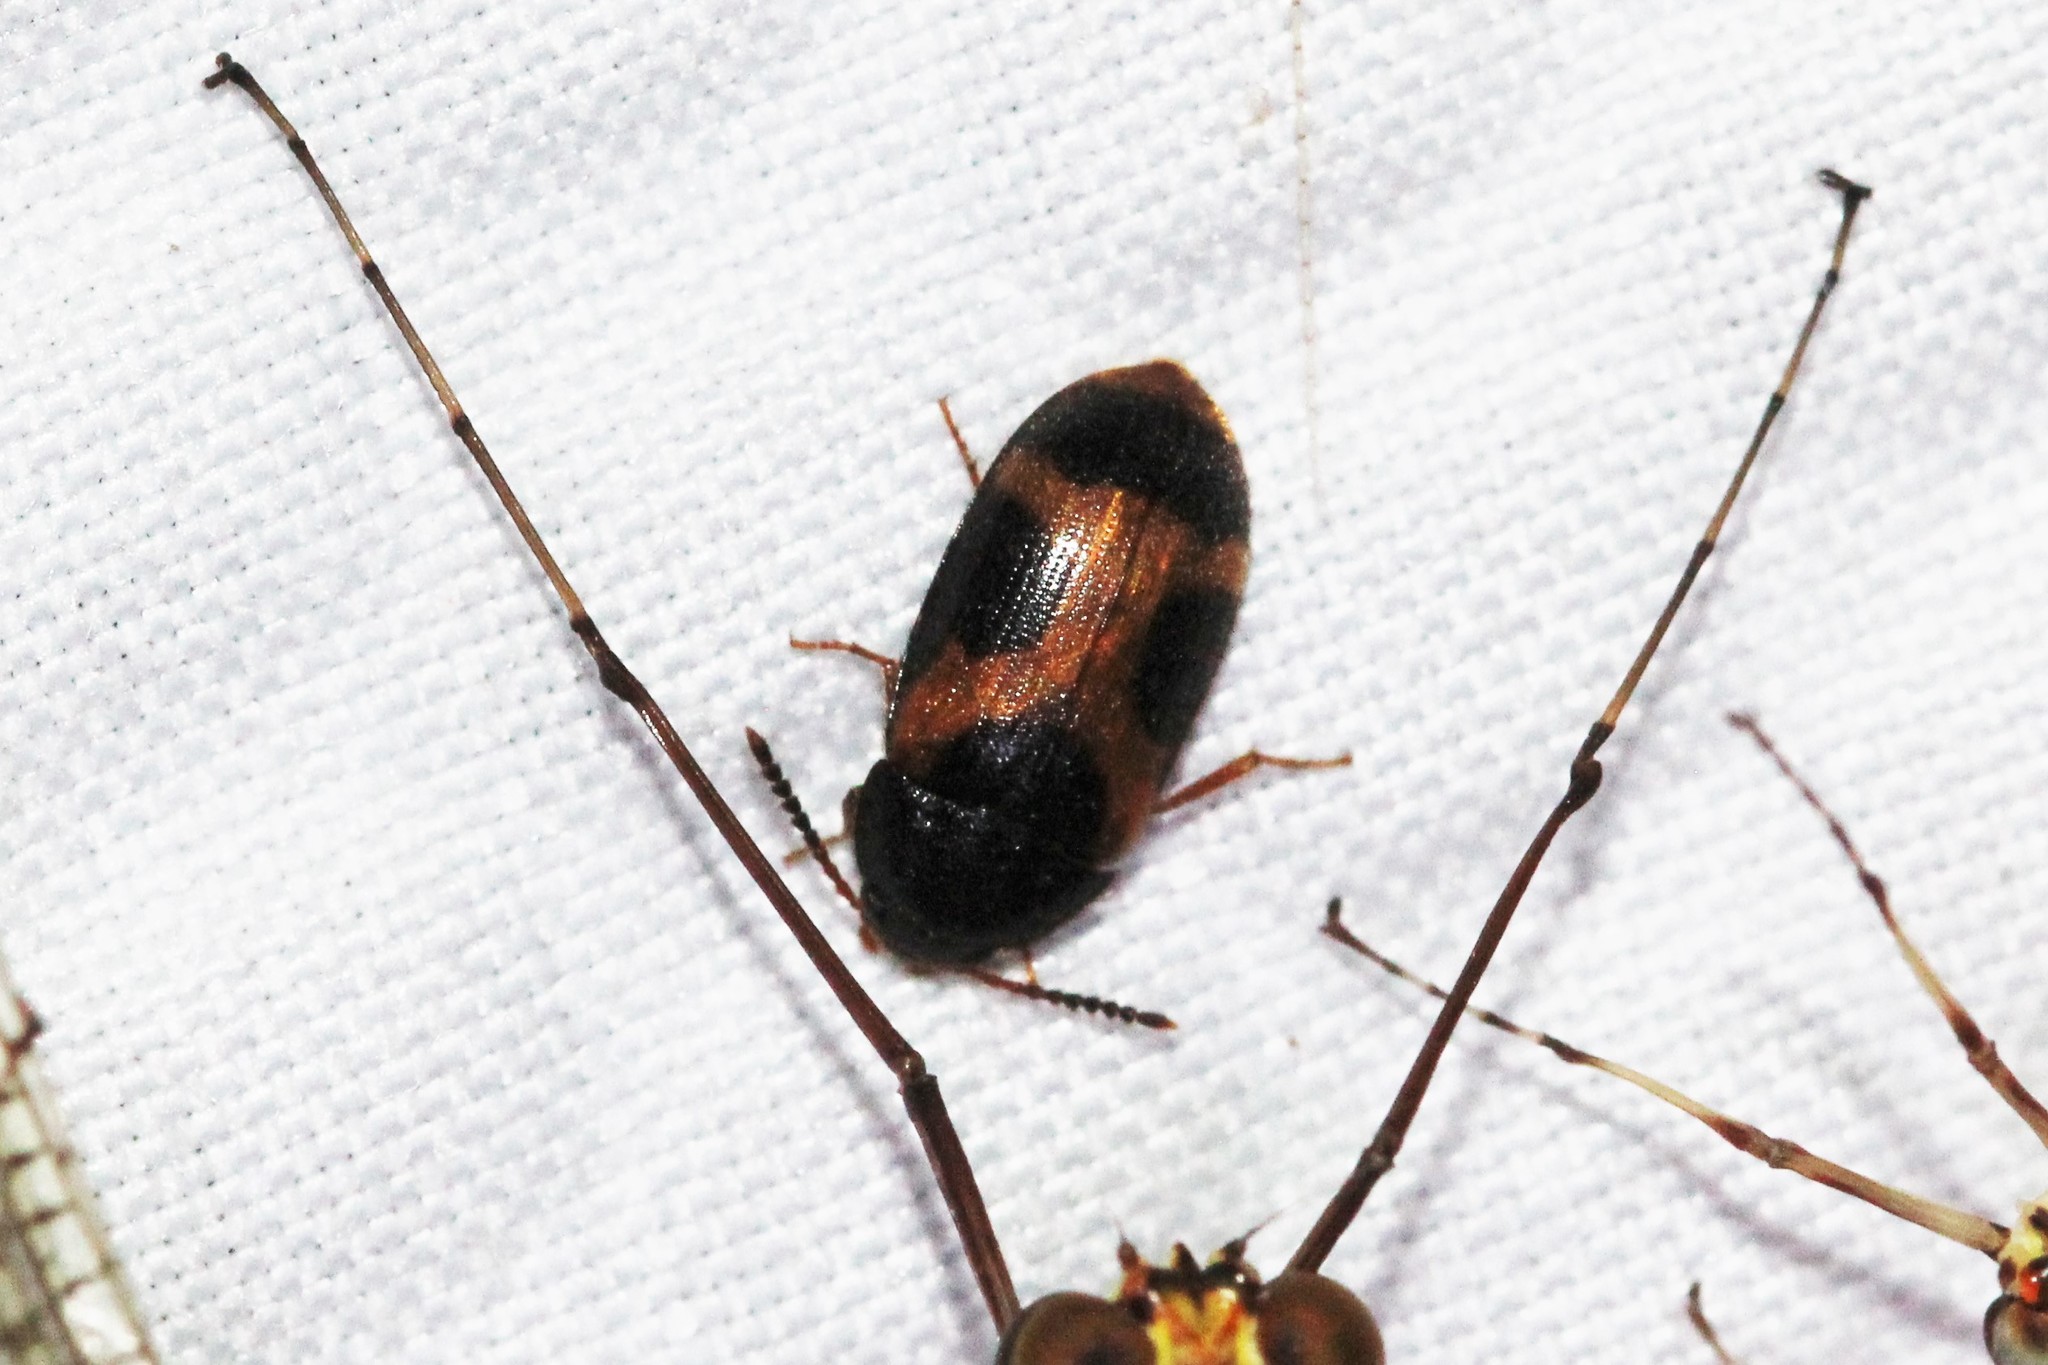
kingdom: Animalia
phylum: Arthropoda
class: Insecta
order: Coleoptera
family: Mycetophagidae
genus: Mycetophagus
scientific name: Mycetophagus punctatus
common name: Hairy fungus beetle
